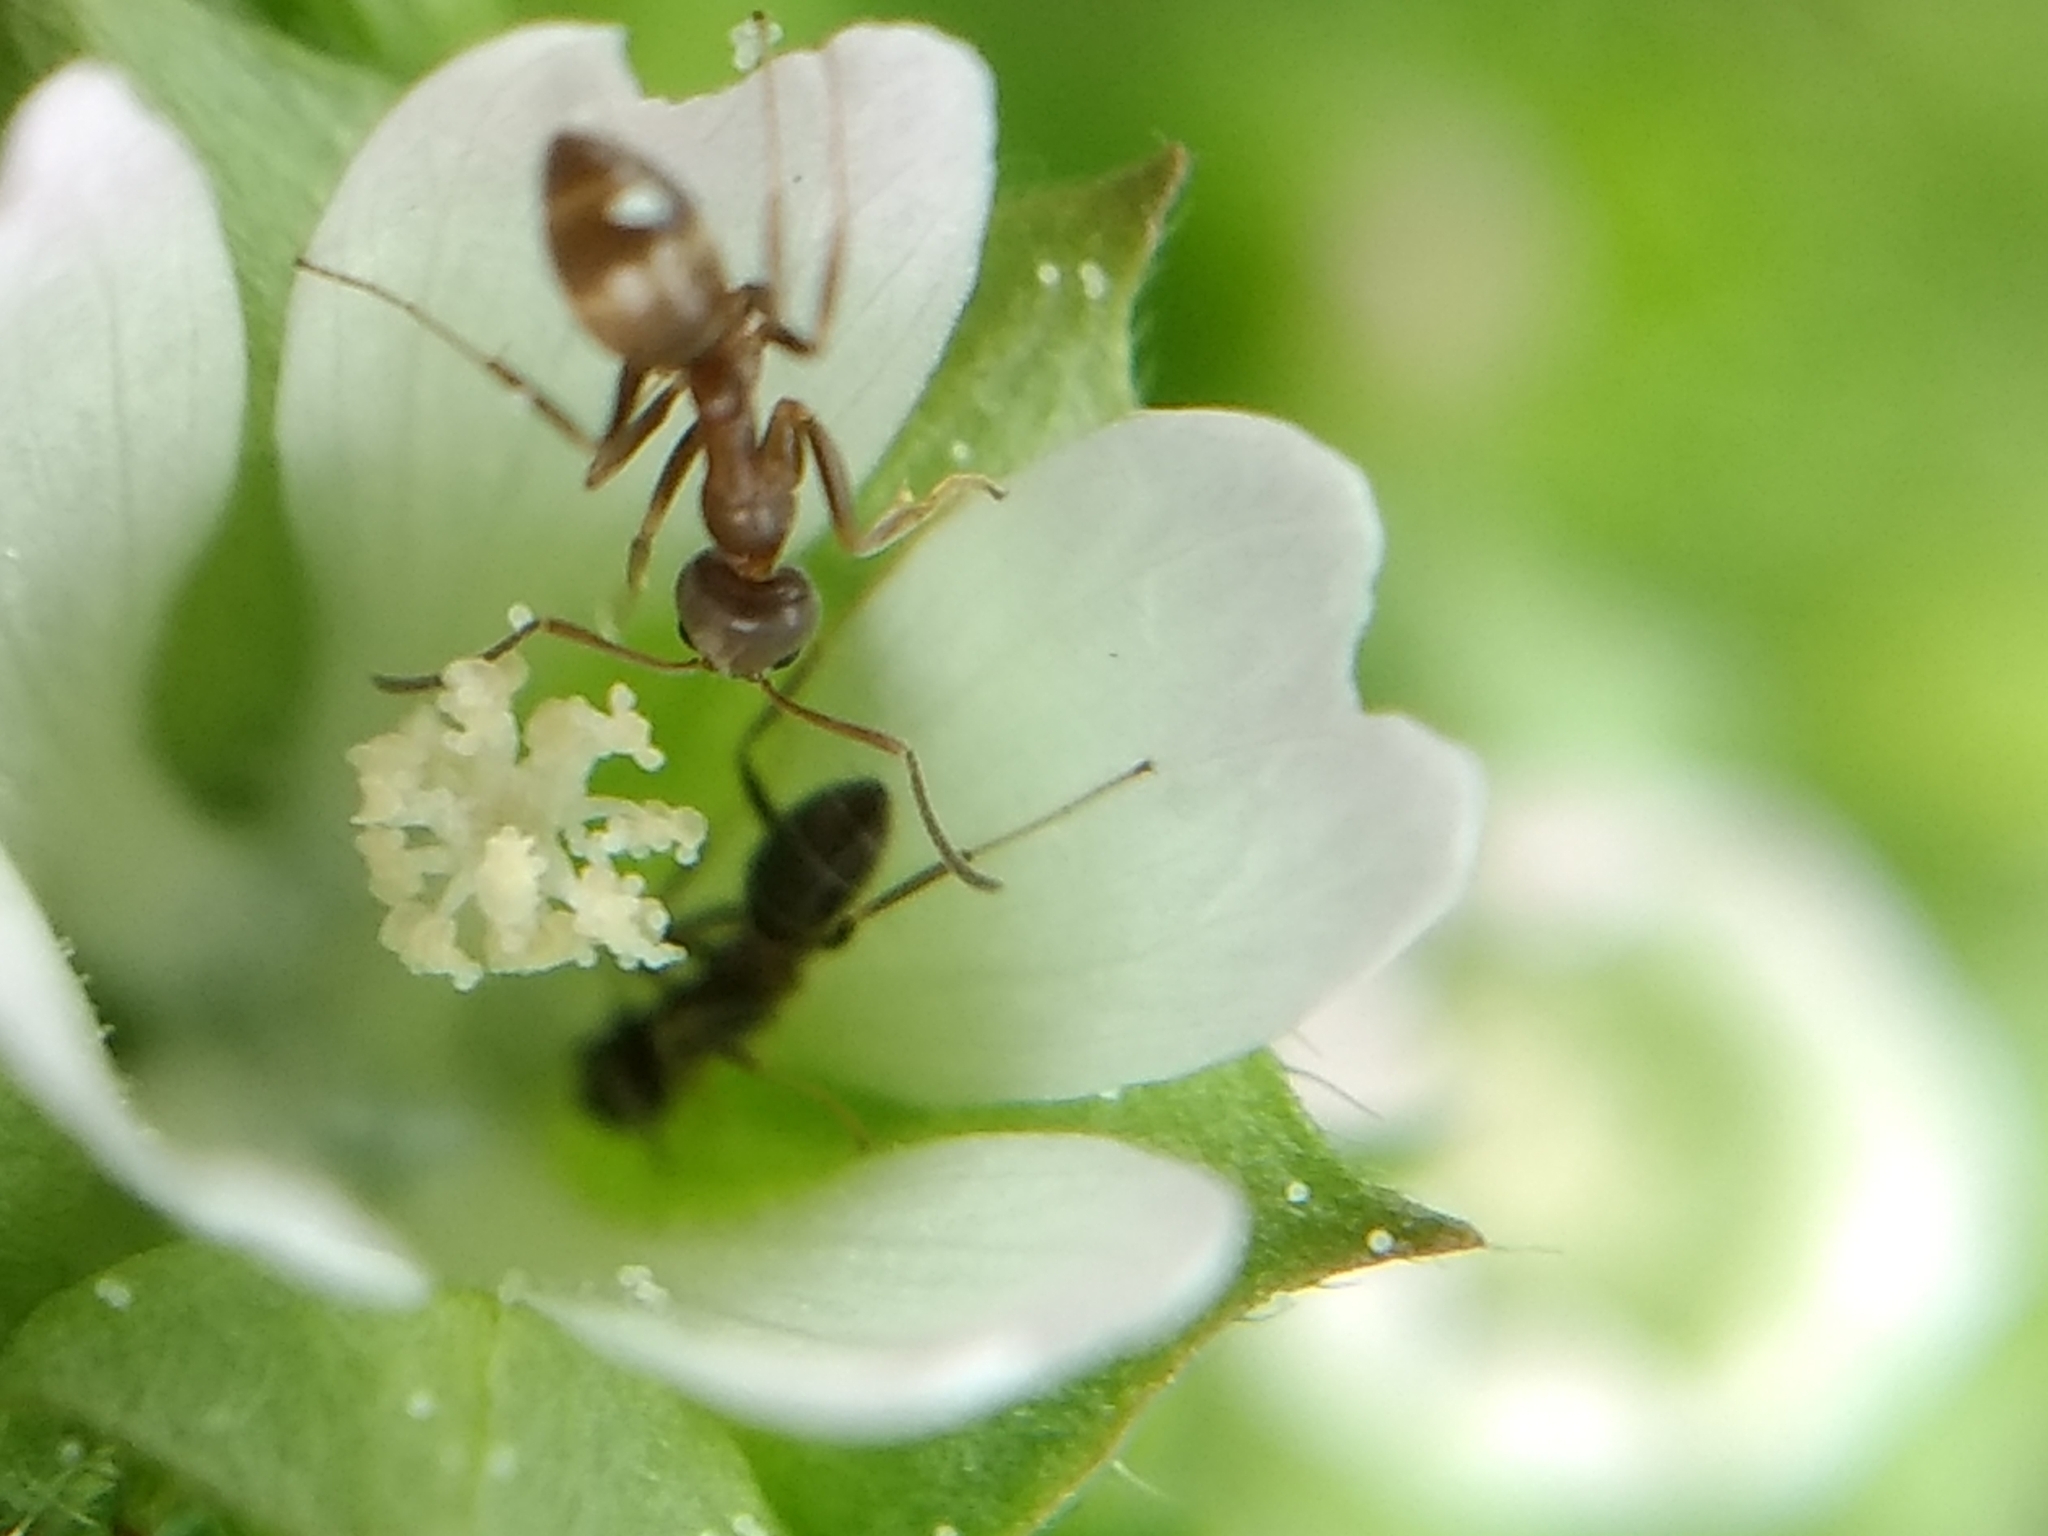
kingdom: Animalia
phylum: Arthropoda
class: Insecta
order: Hymenoptera
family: Formicidae
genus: Linepithema
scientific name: Linepithema humile
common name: Argentine ant
